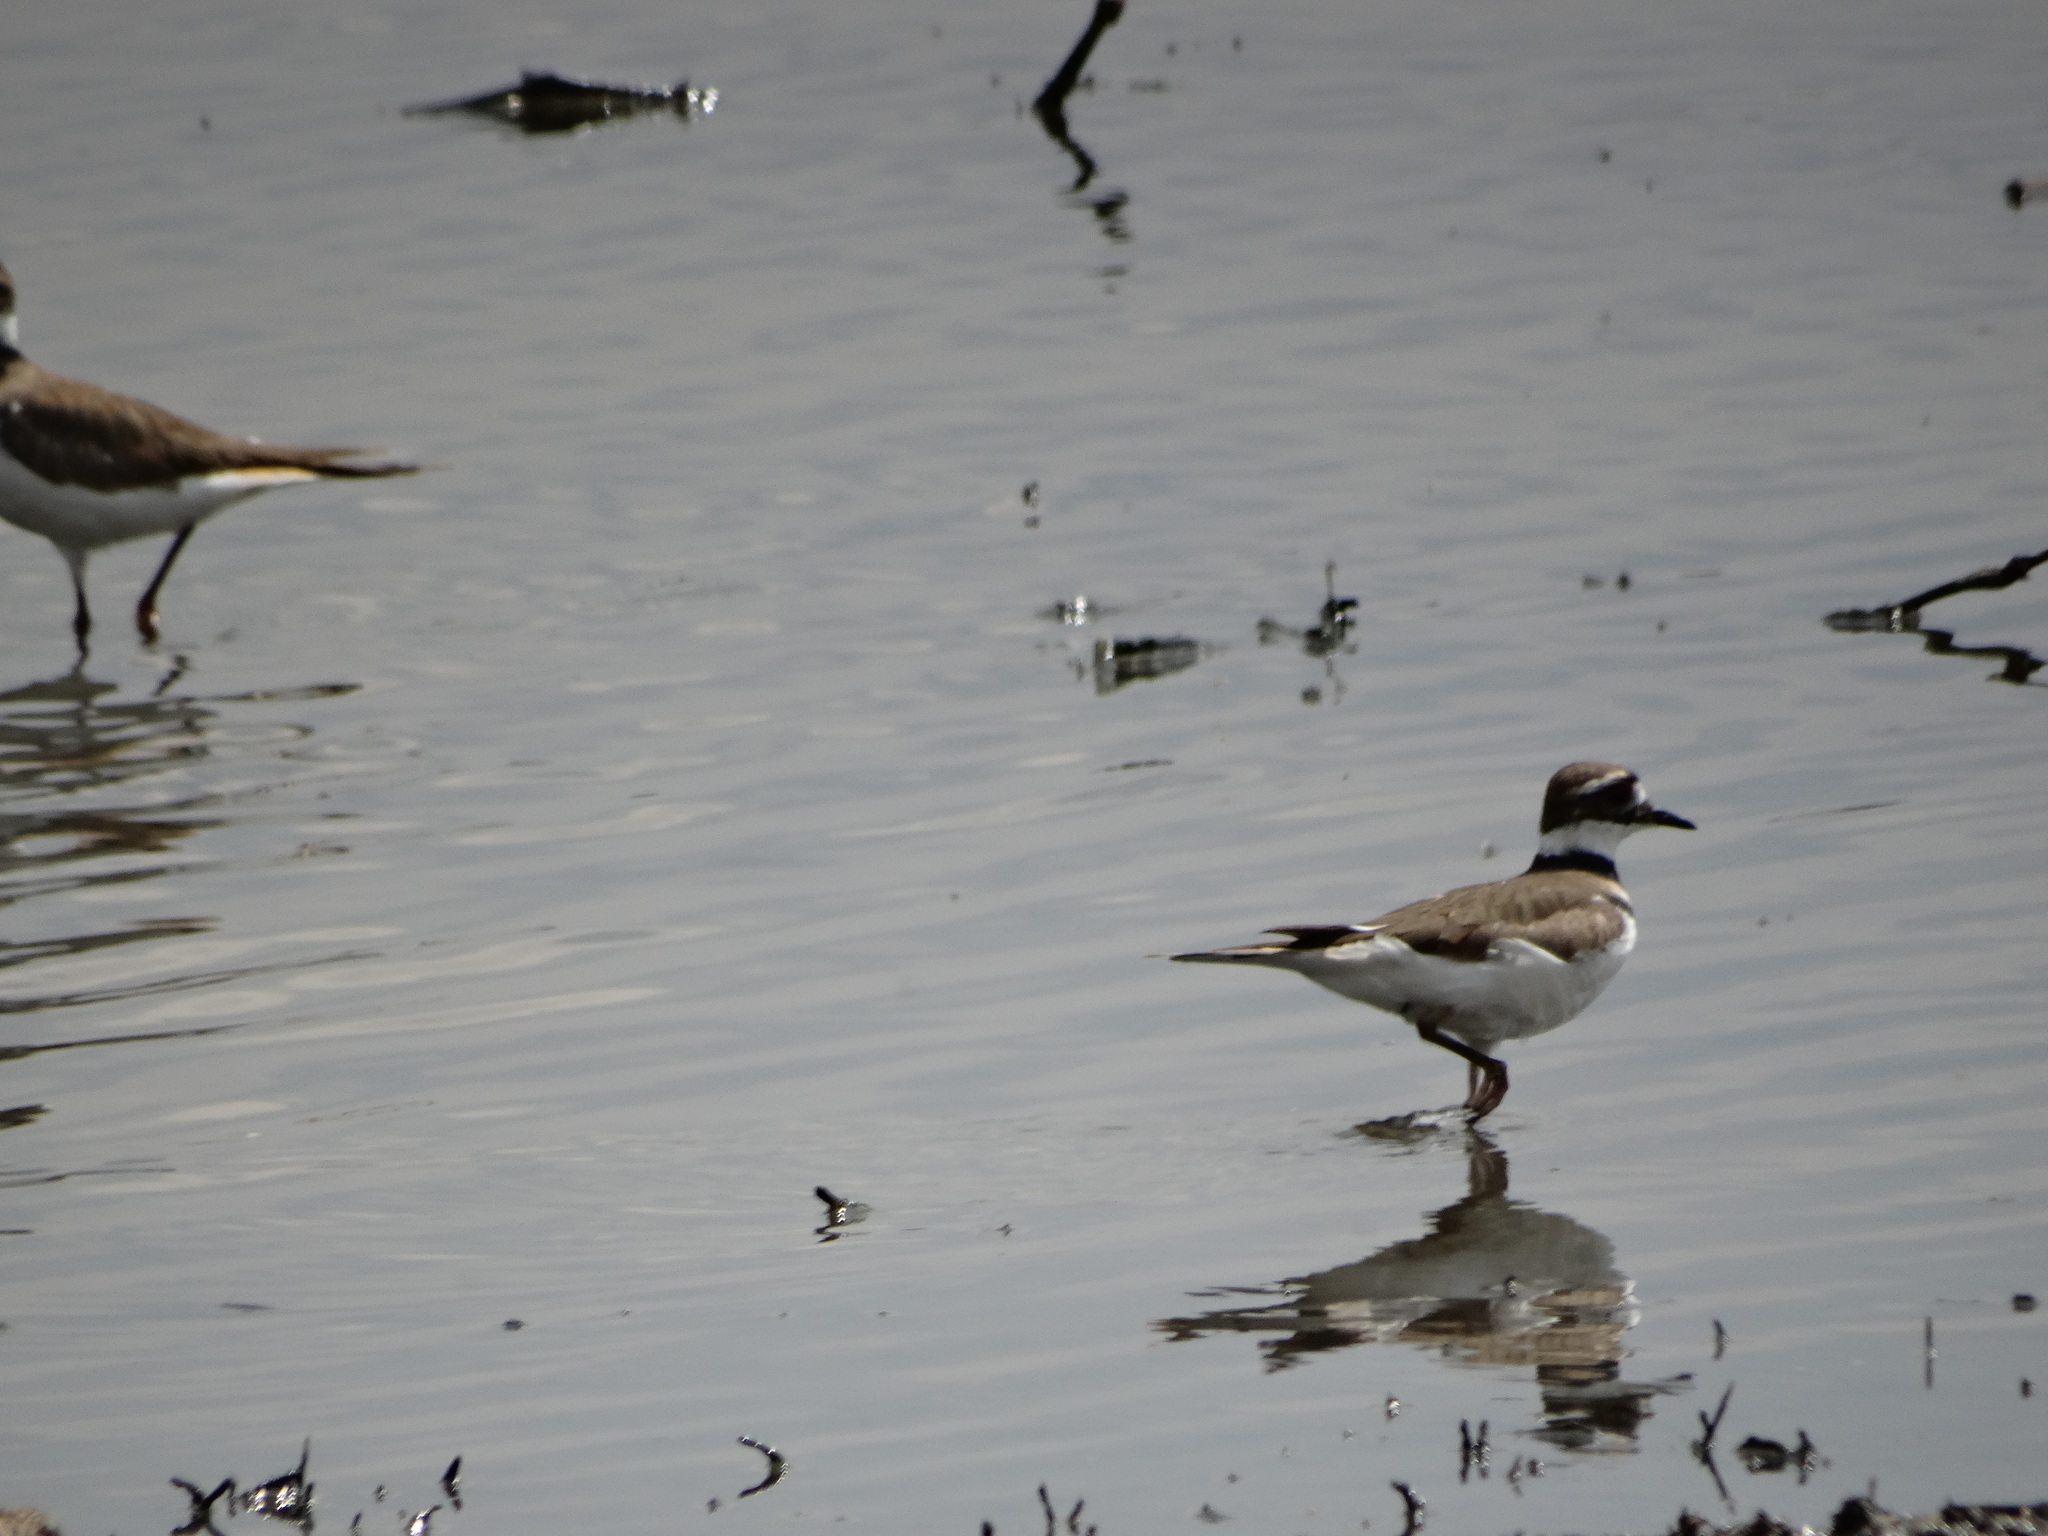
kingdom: Animalia
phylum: Chordata
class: Aves
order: Charadriiformes
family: Charadriidae
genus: Charadrius
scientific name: Charadrius vociferus
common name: Killdeer
